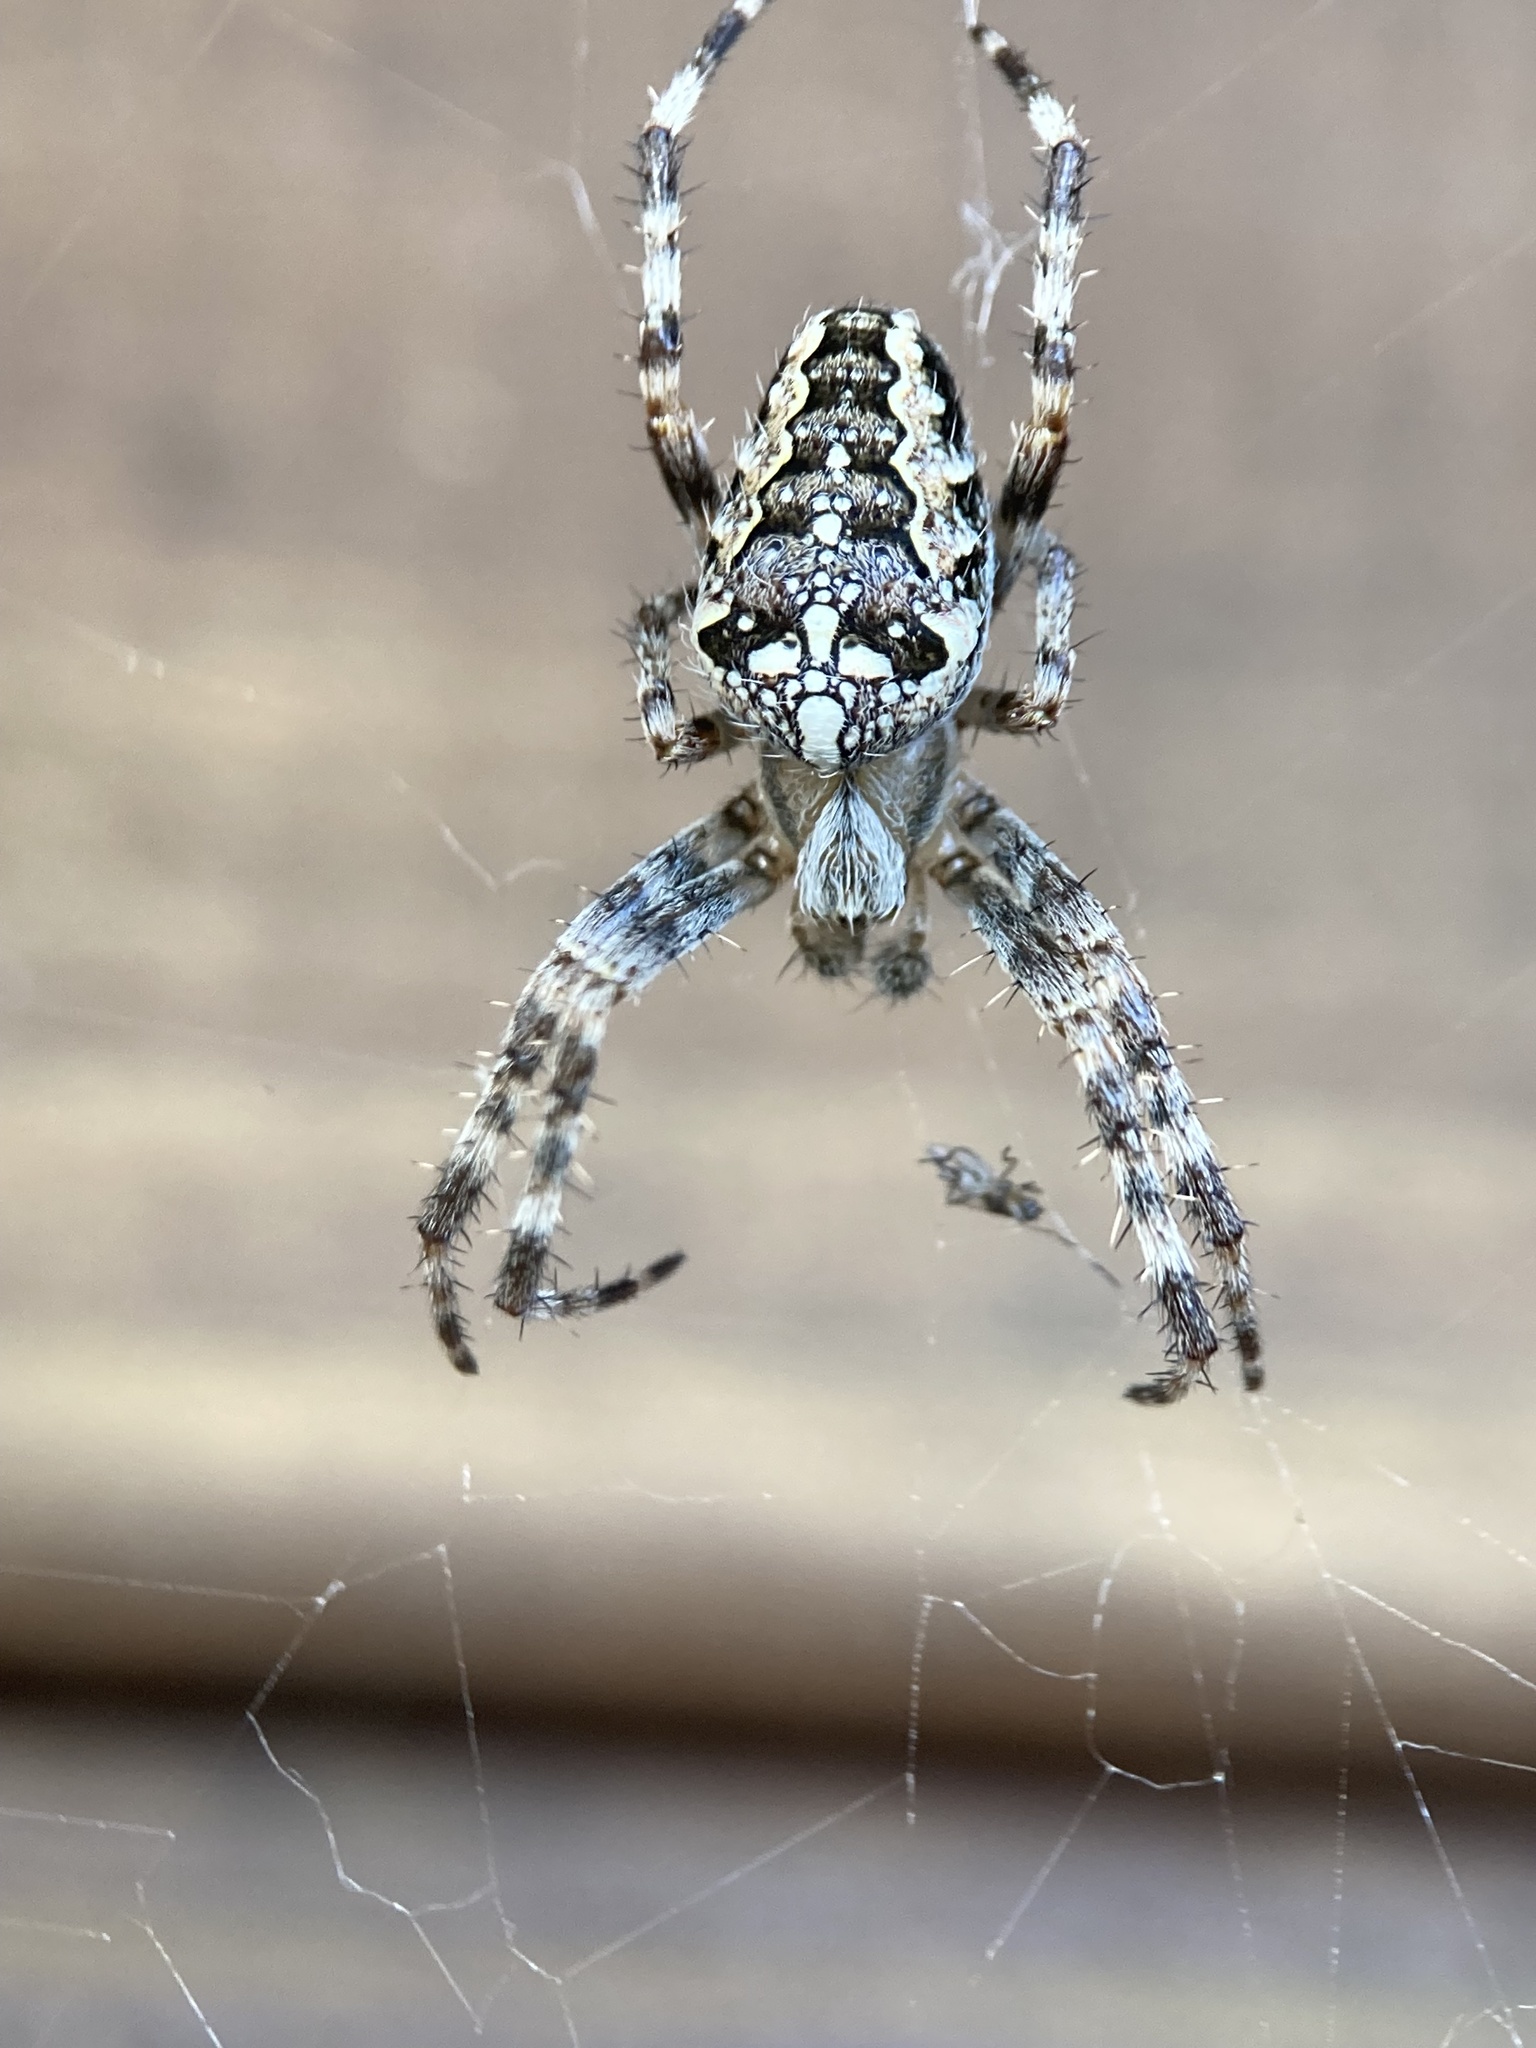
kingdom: Animalia
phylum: Arthropoda
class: Arachnida
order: Araneae
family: Araneidae
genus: Araneus
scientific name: Araneus diadematus
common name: Cross orbweaver
